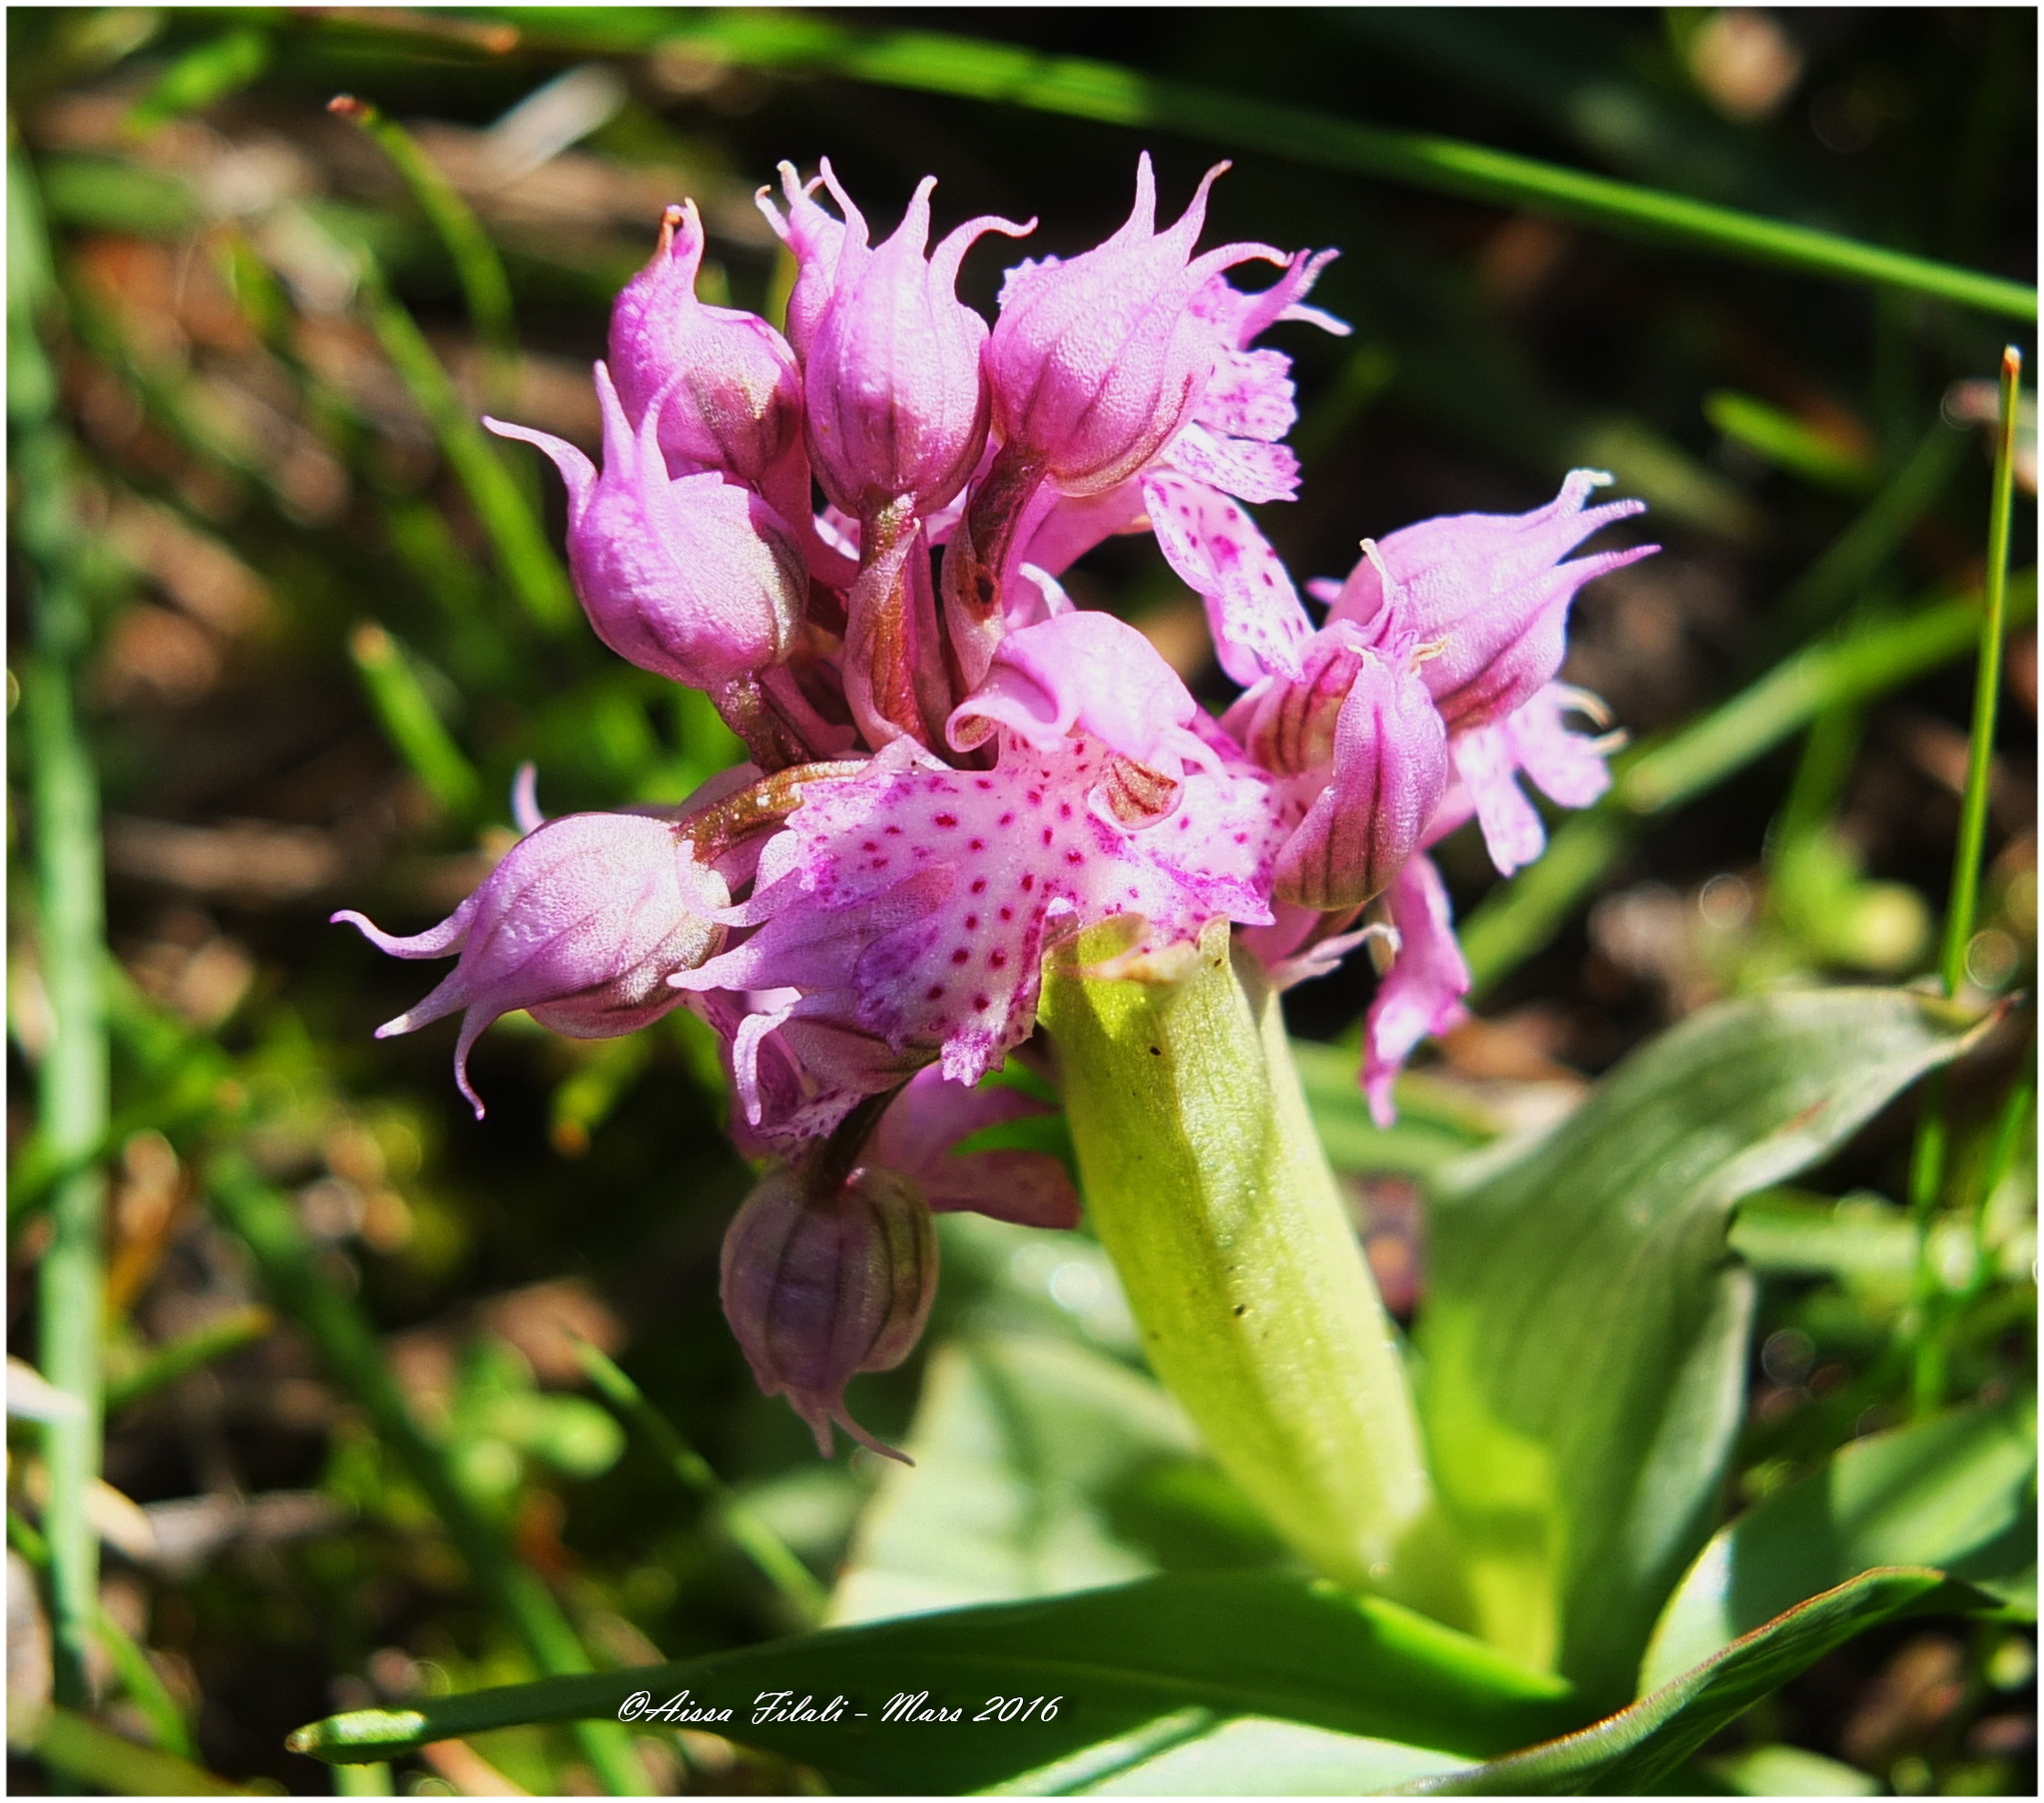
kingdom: Plantae
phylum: Tracheophyta
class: Liliopsida
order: Asparagales
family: Orchidaceae
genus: Neotinea
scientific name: Neotinea lactea
